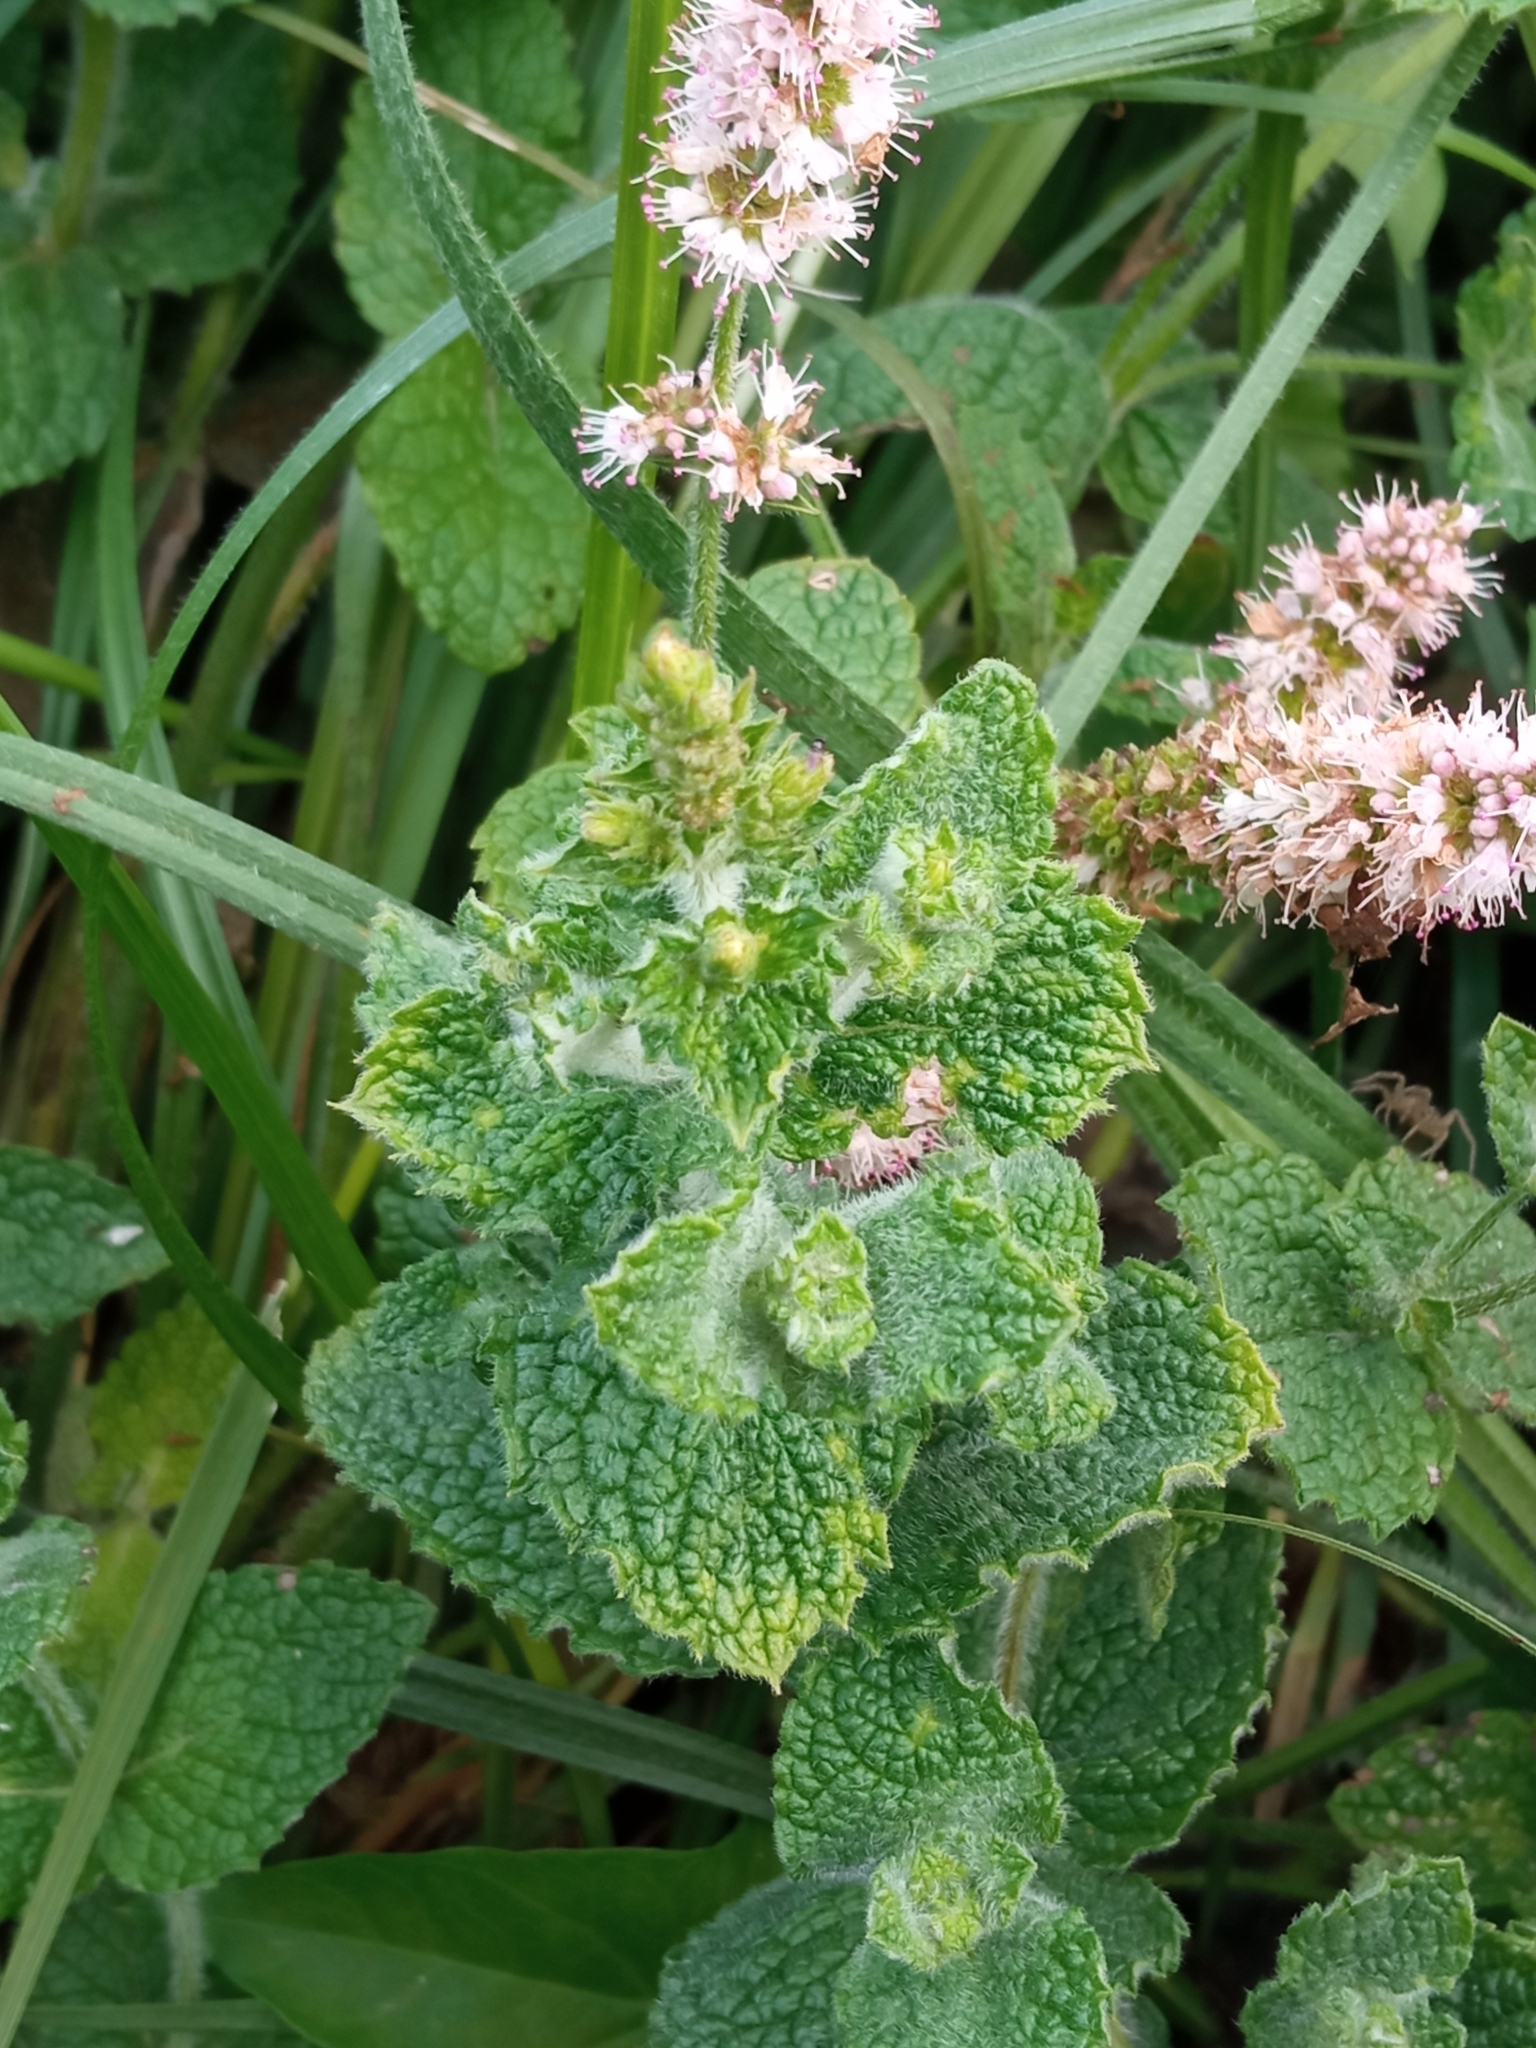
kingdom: Plantae
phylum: Tracheophyta
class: Magnoliopsida
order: Lamiales
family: Lamiaceae
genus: Mentha
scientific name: Mentha suaveolens
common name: Apple mint
